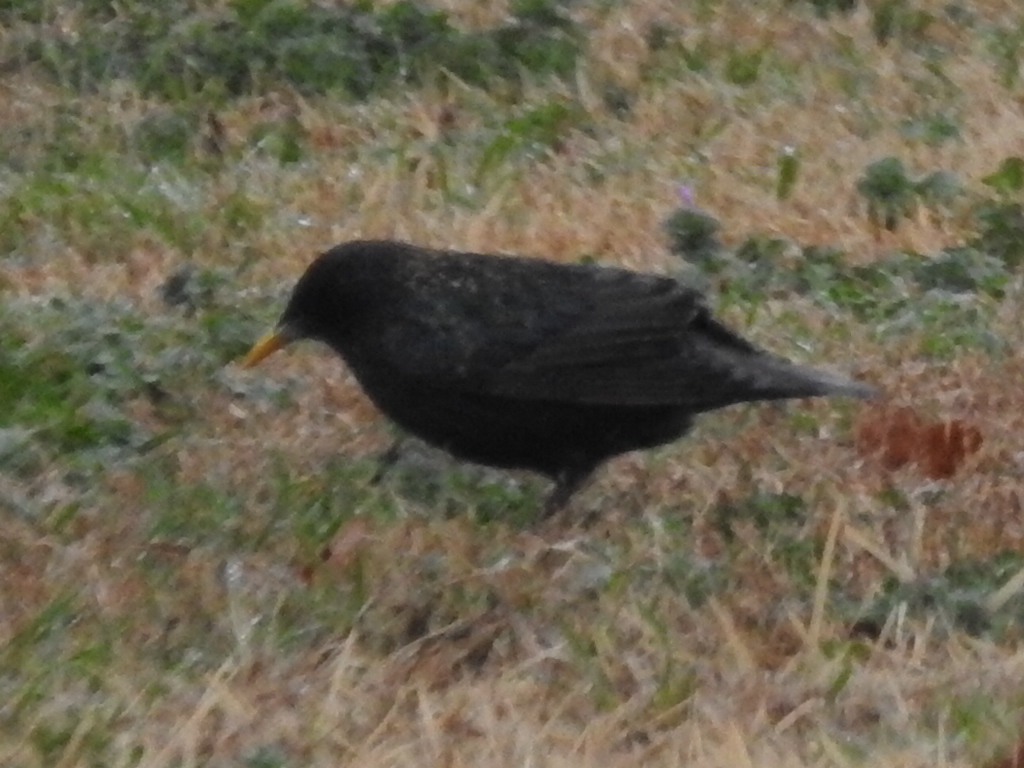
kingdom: Animalia
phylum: Chordata
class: Aves
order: Passeriformes
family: Sturnidae
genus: Sturnus
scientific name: Sturnus vulgaris
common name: Common starling
